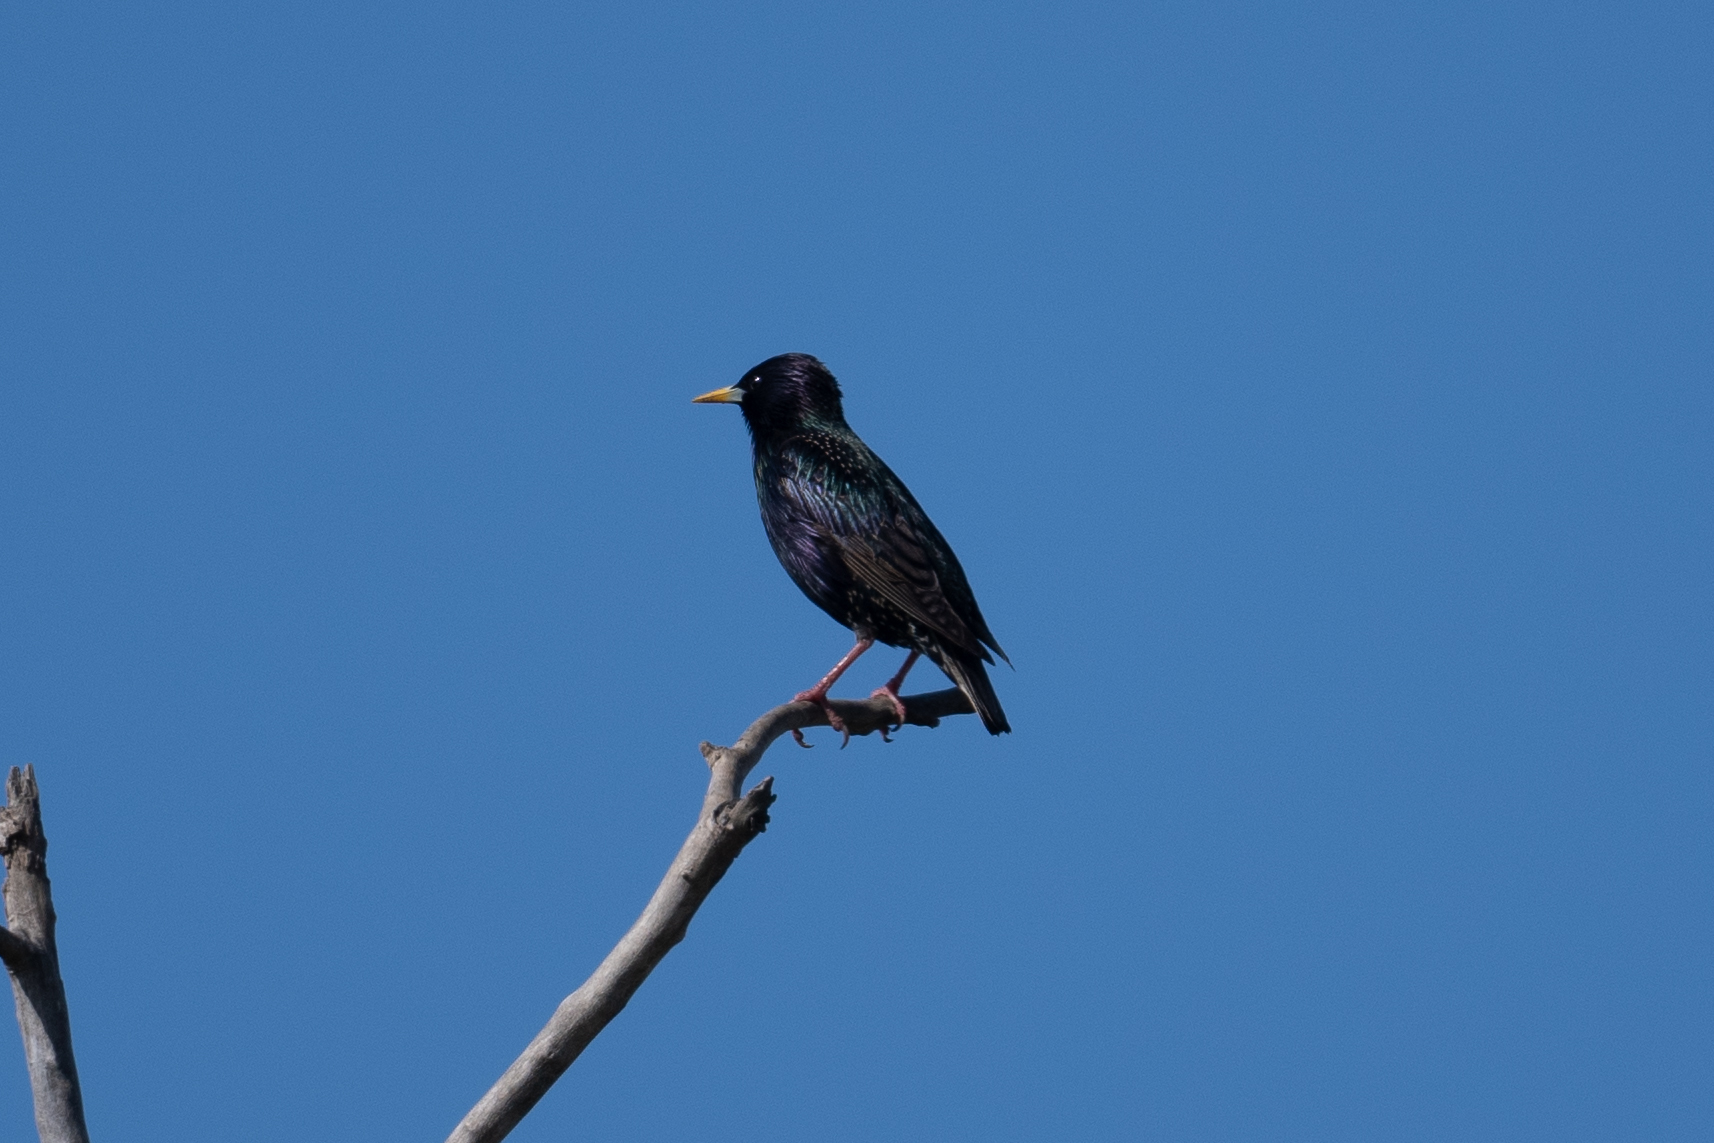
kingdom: Animalia
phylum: Chordata
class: Aves
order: Passeriformes
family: Sturnidae
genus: Sturnus
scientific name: Sturnus vulgaris
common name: Common starling
